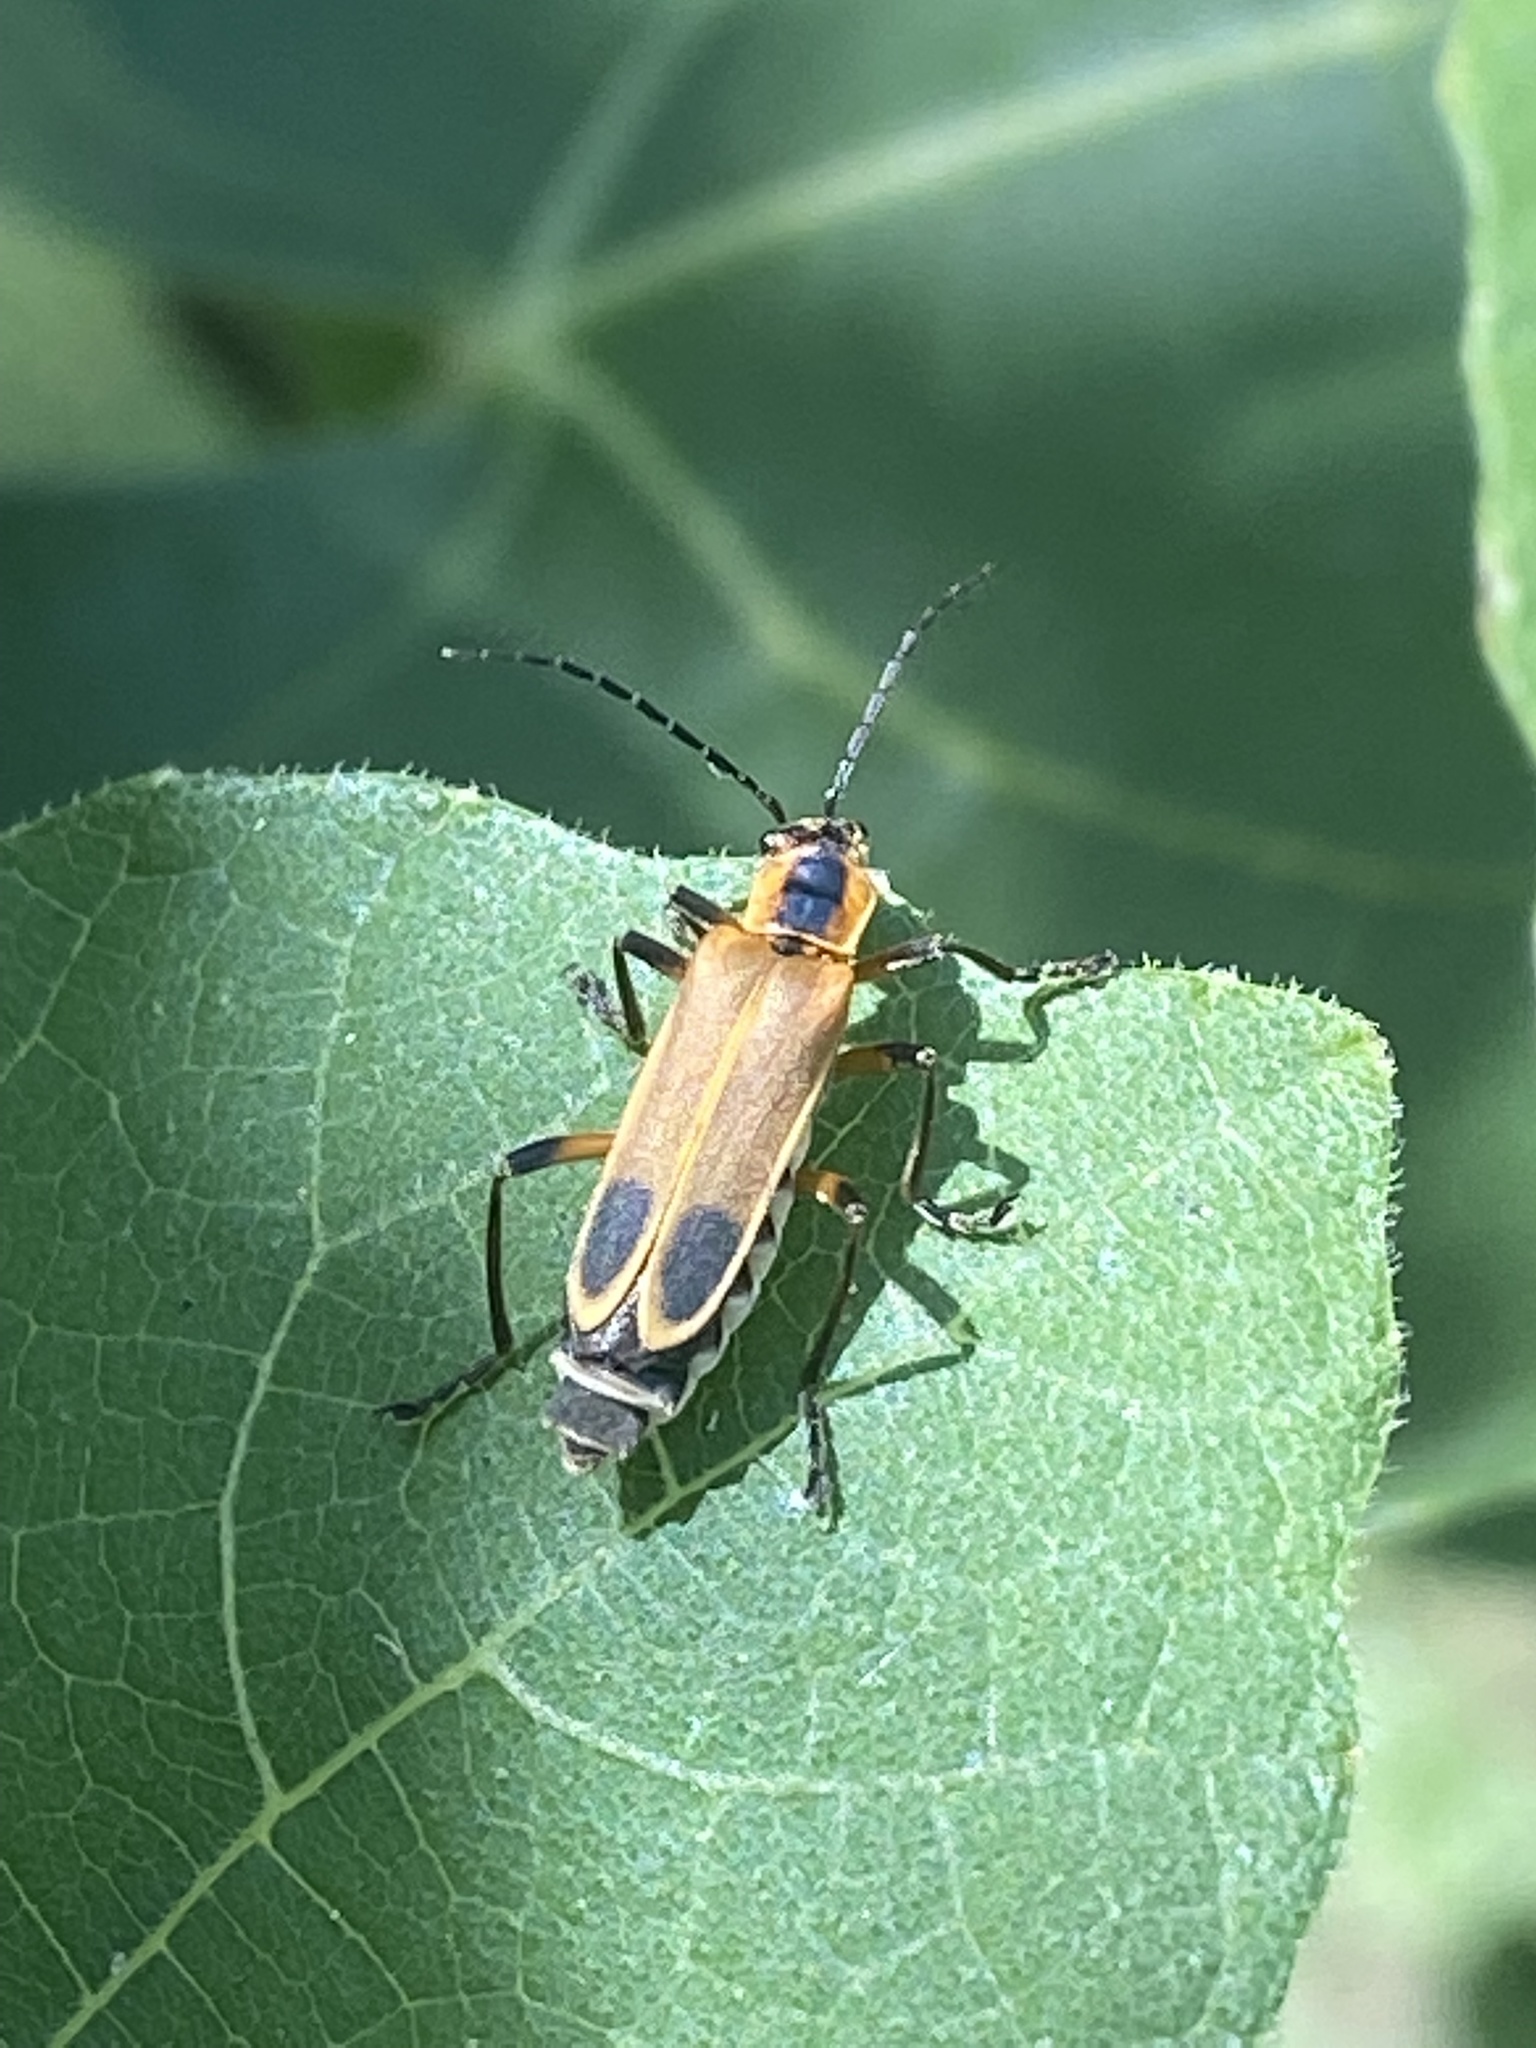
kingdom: Animalia
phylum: Arthropoda
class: Insecta
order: Coleoptera
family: Cantharidae
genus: Chauliognathus
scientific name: Chauliognathus marginatus
